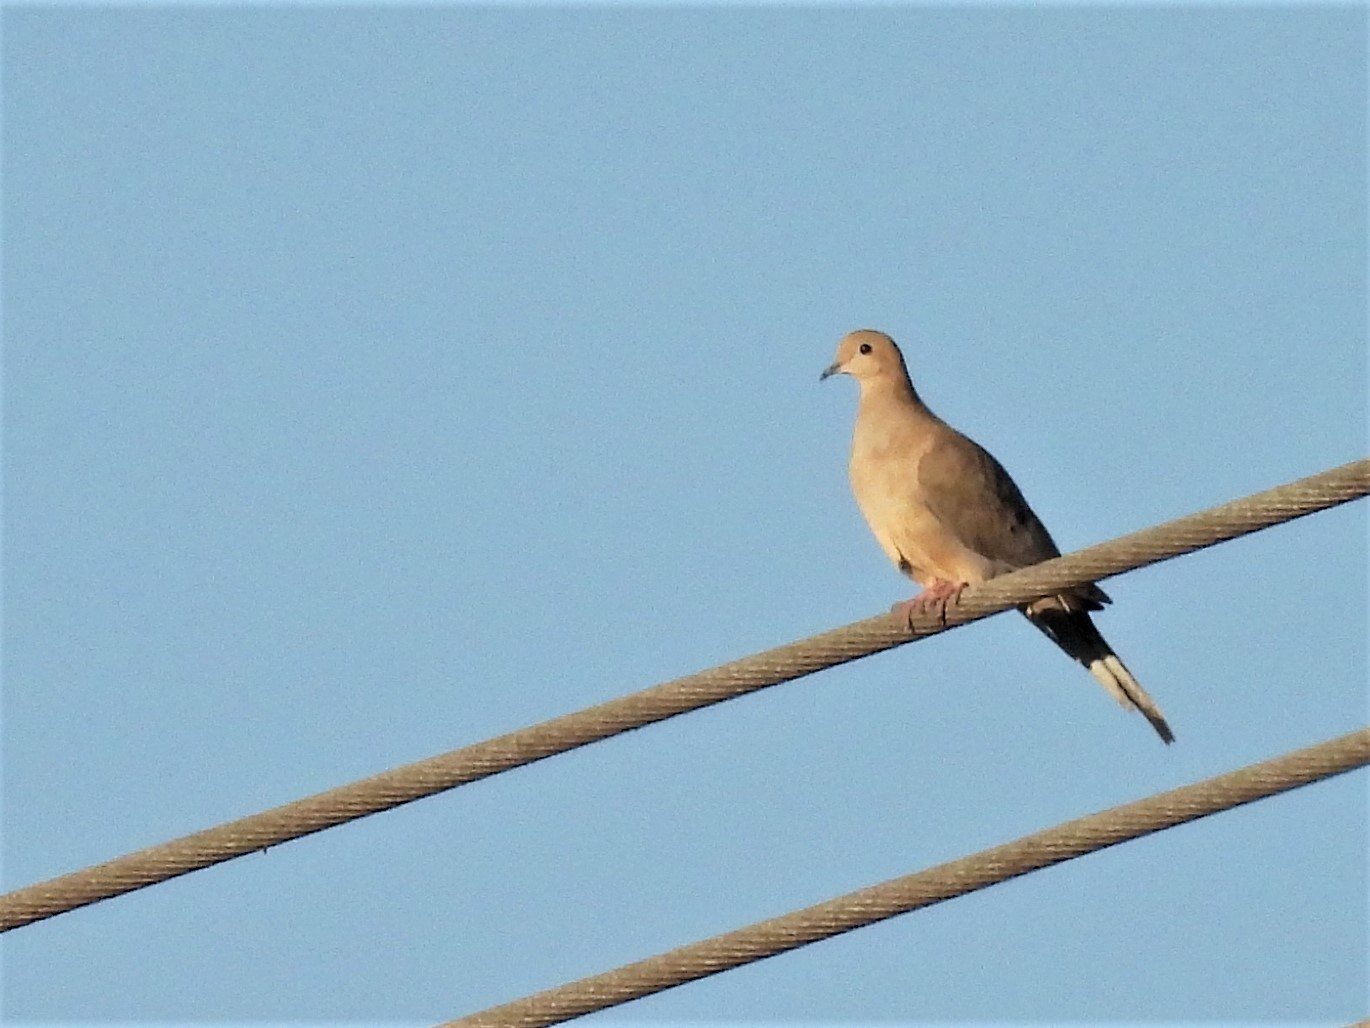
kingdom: Animalia
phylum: Chordata
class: Aves
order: Columbiformes
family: Columbidae
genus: Zenaida
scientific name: Zenaida macroura
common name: Mourning dove
